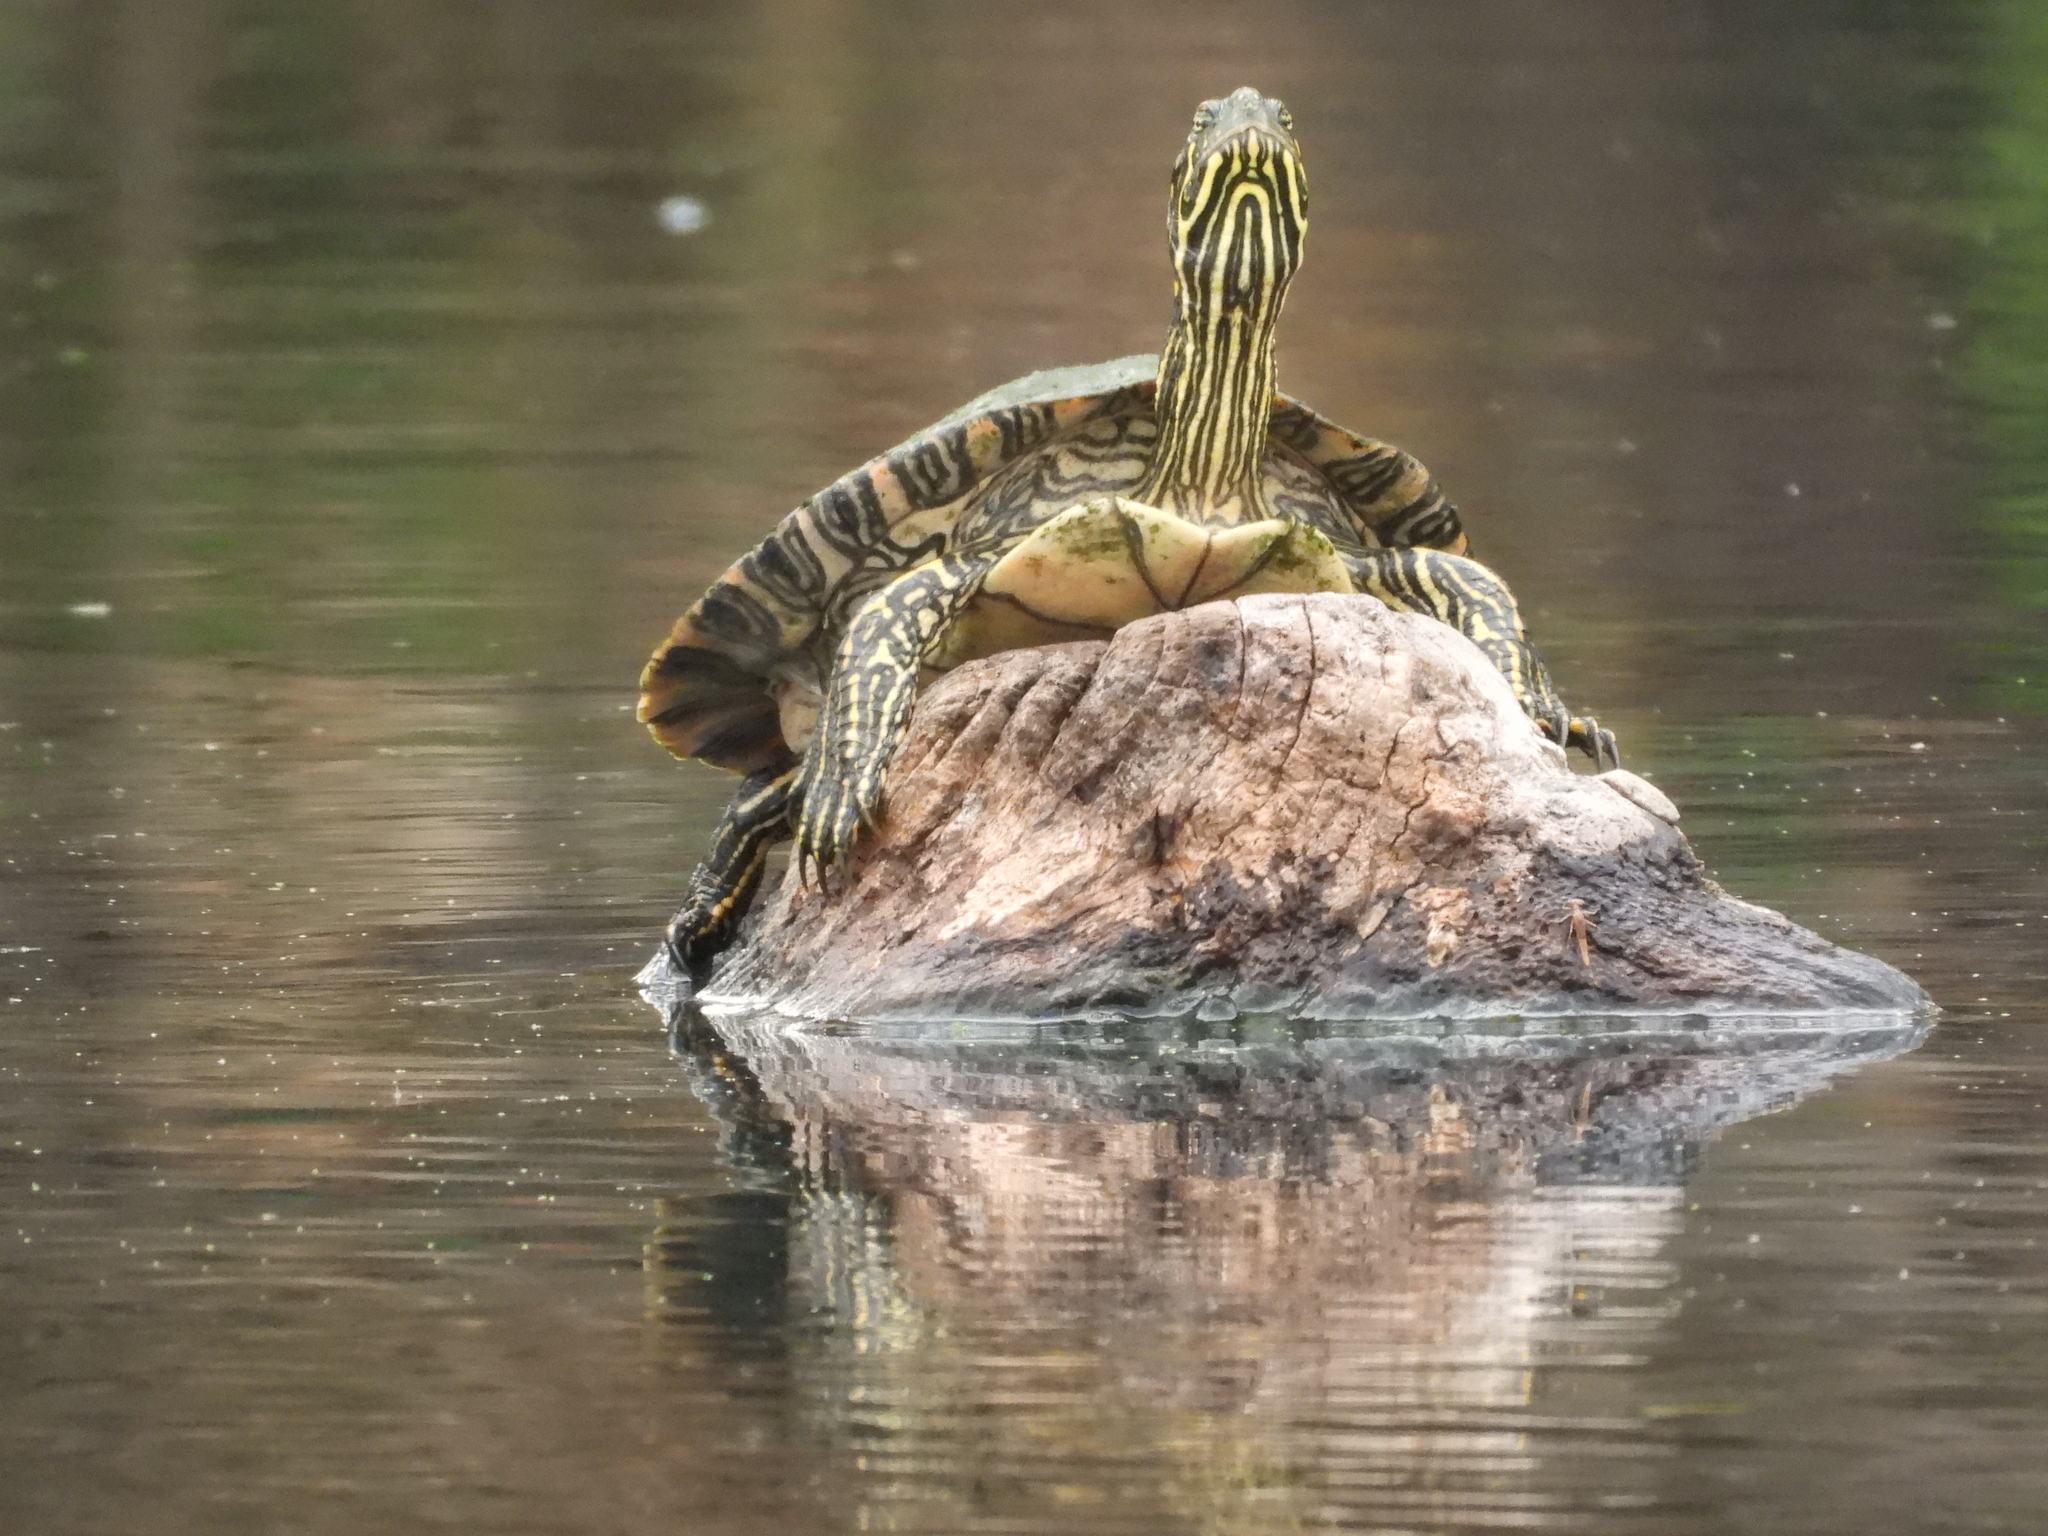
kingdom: Animalia
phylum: Chordata
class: Testudines
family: Emydidae
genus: Pseudemys
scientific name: Pseudemys texana
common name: Texas river cooter
